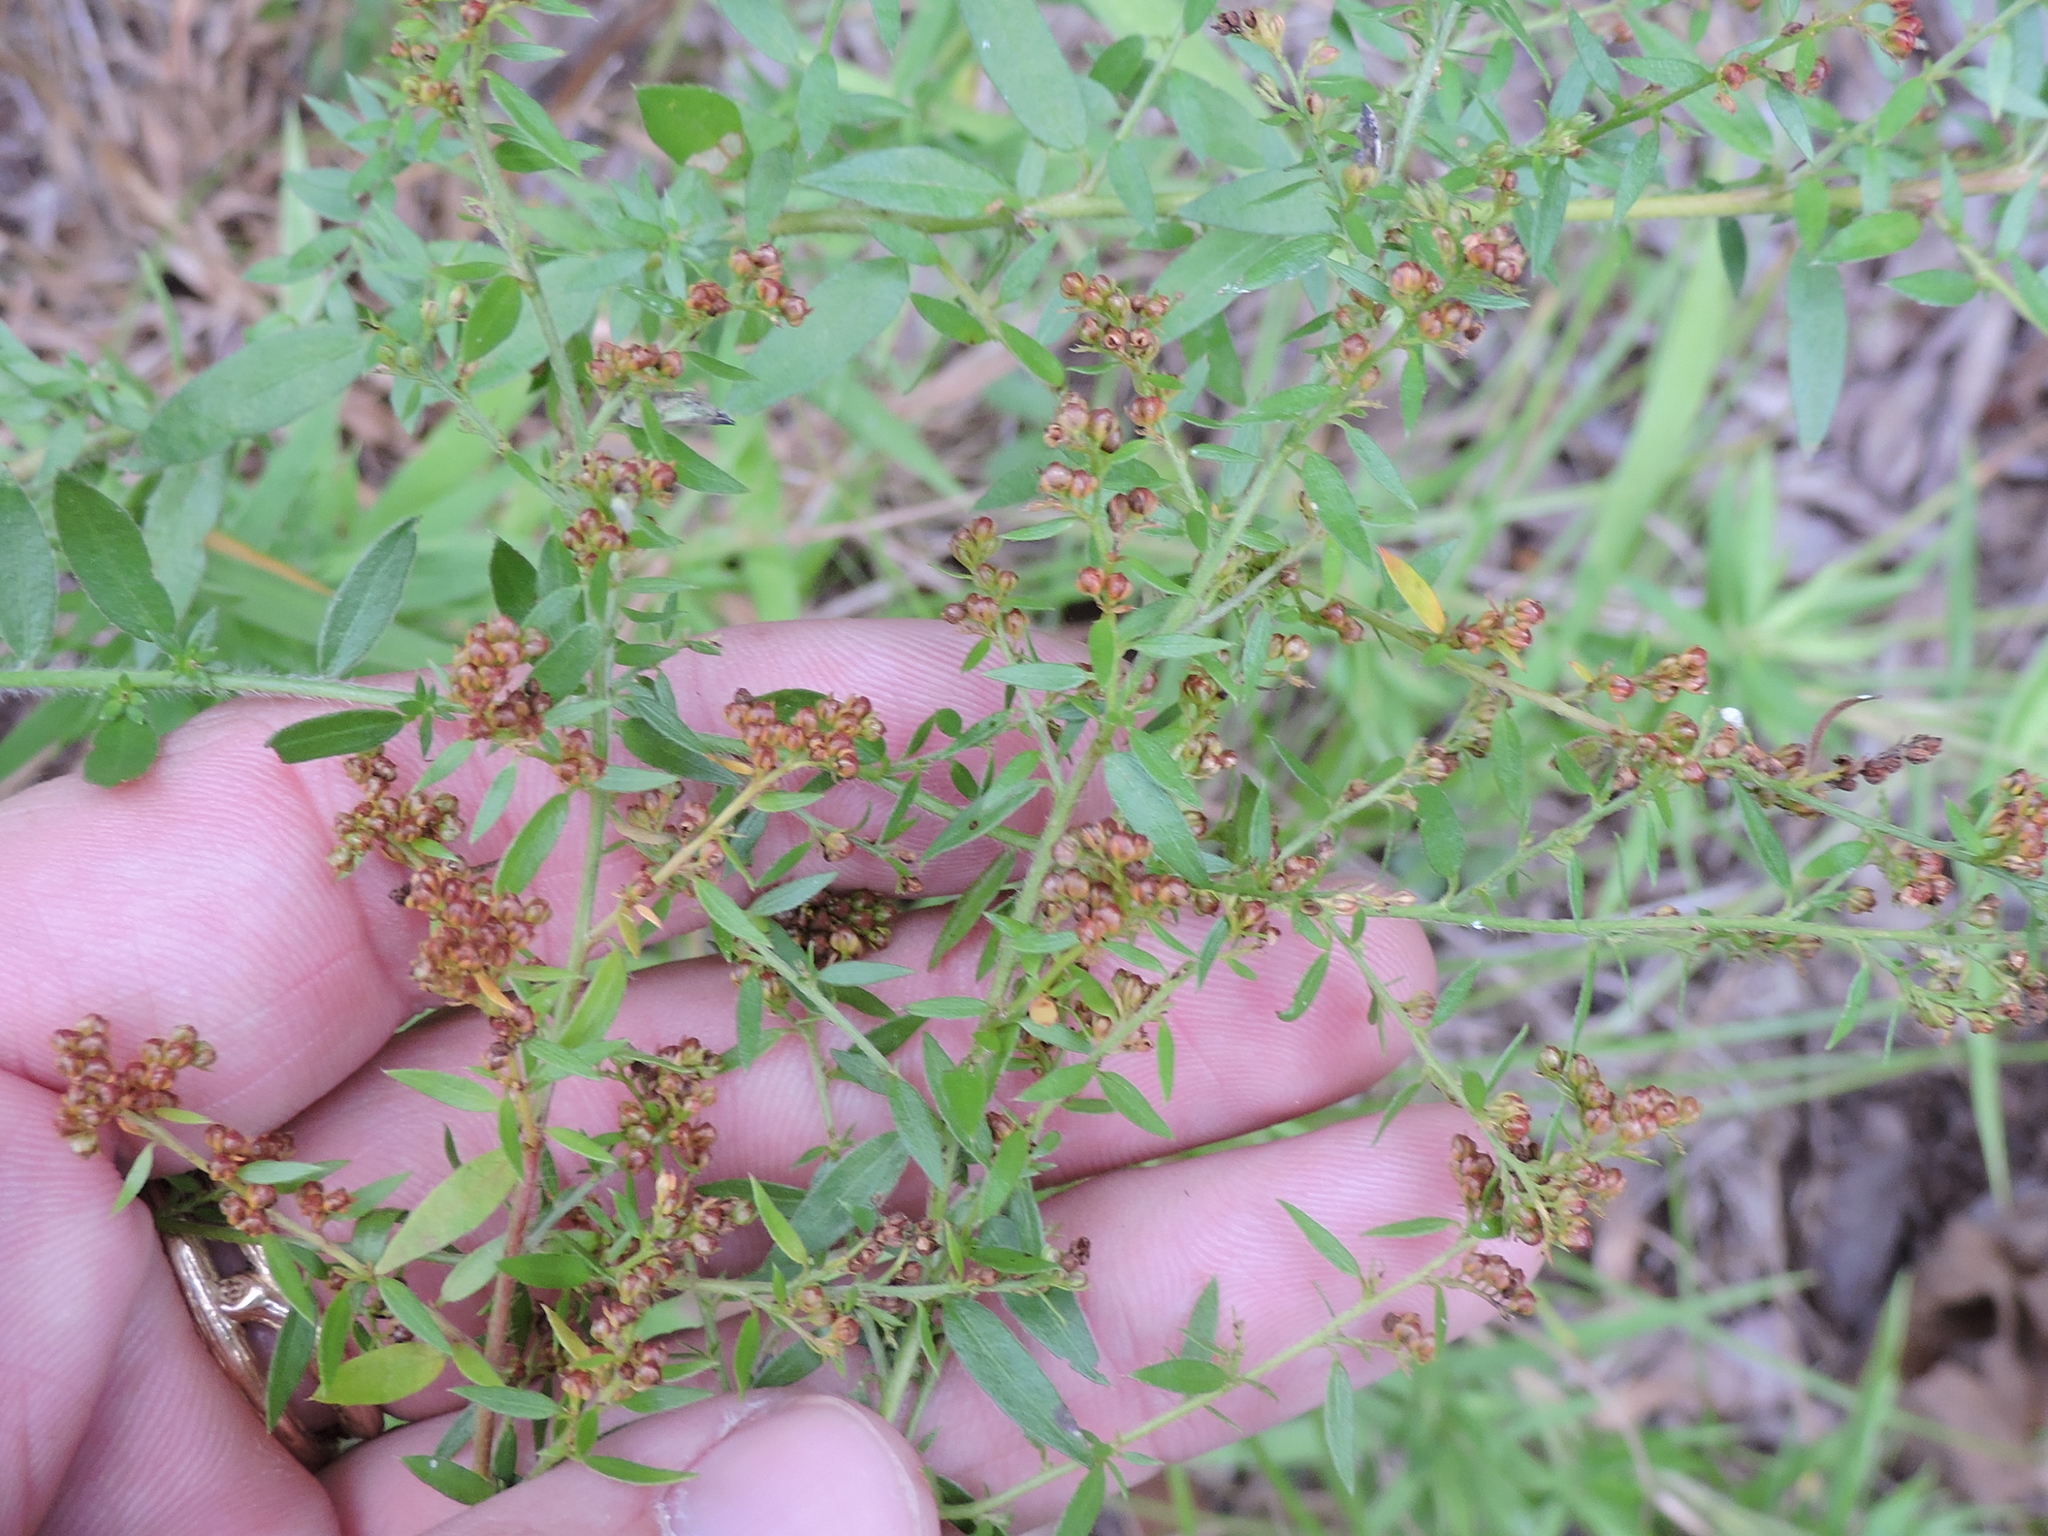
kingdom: Plantae
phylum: Tracheophyta
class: Magnoliopsida
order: Malvales
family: Cistaceae
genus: Lechea
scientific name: Lechea mucronata
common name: Hairy pinweed
